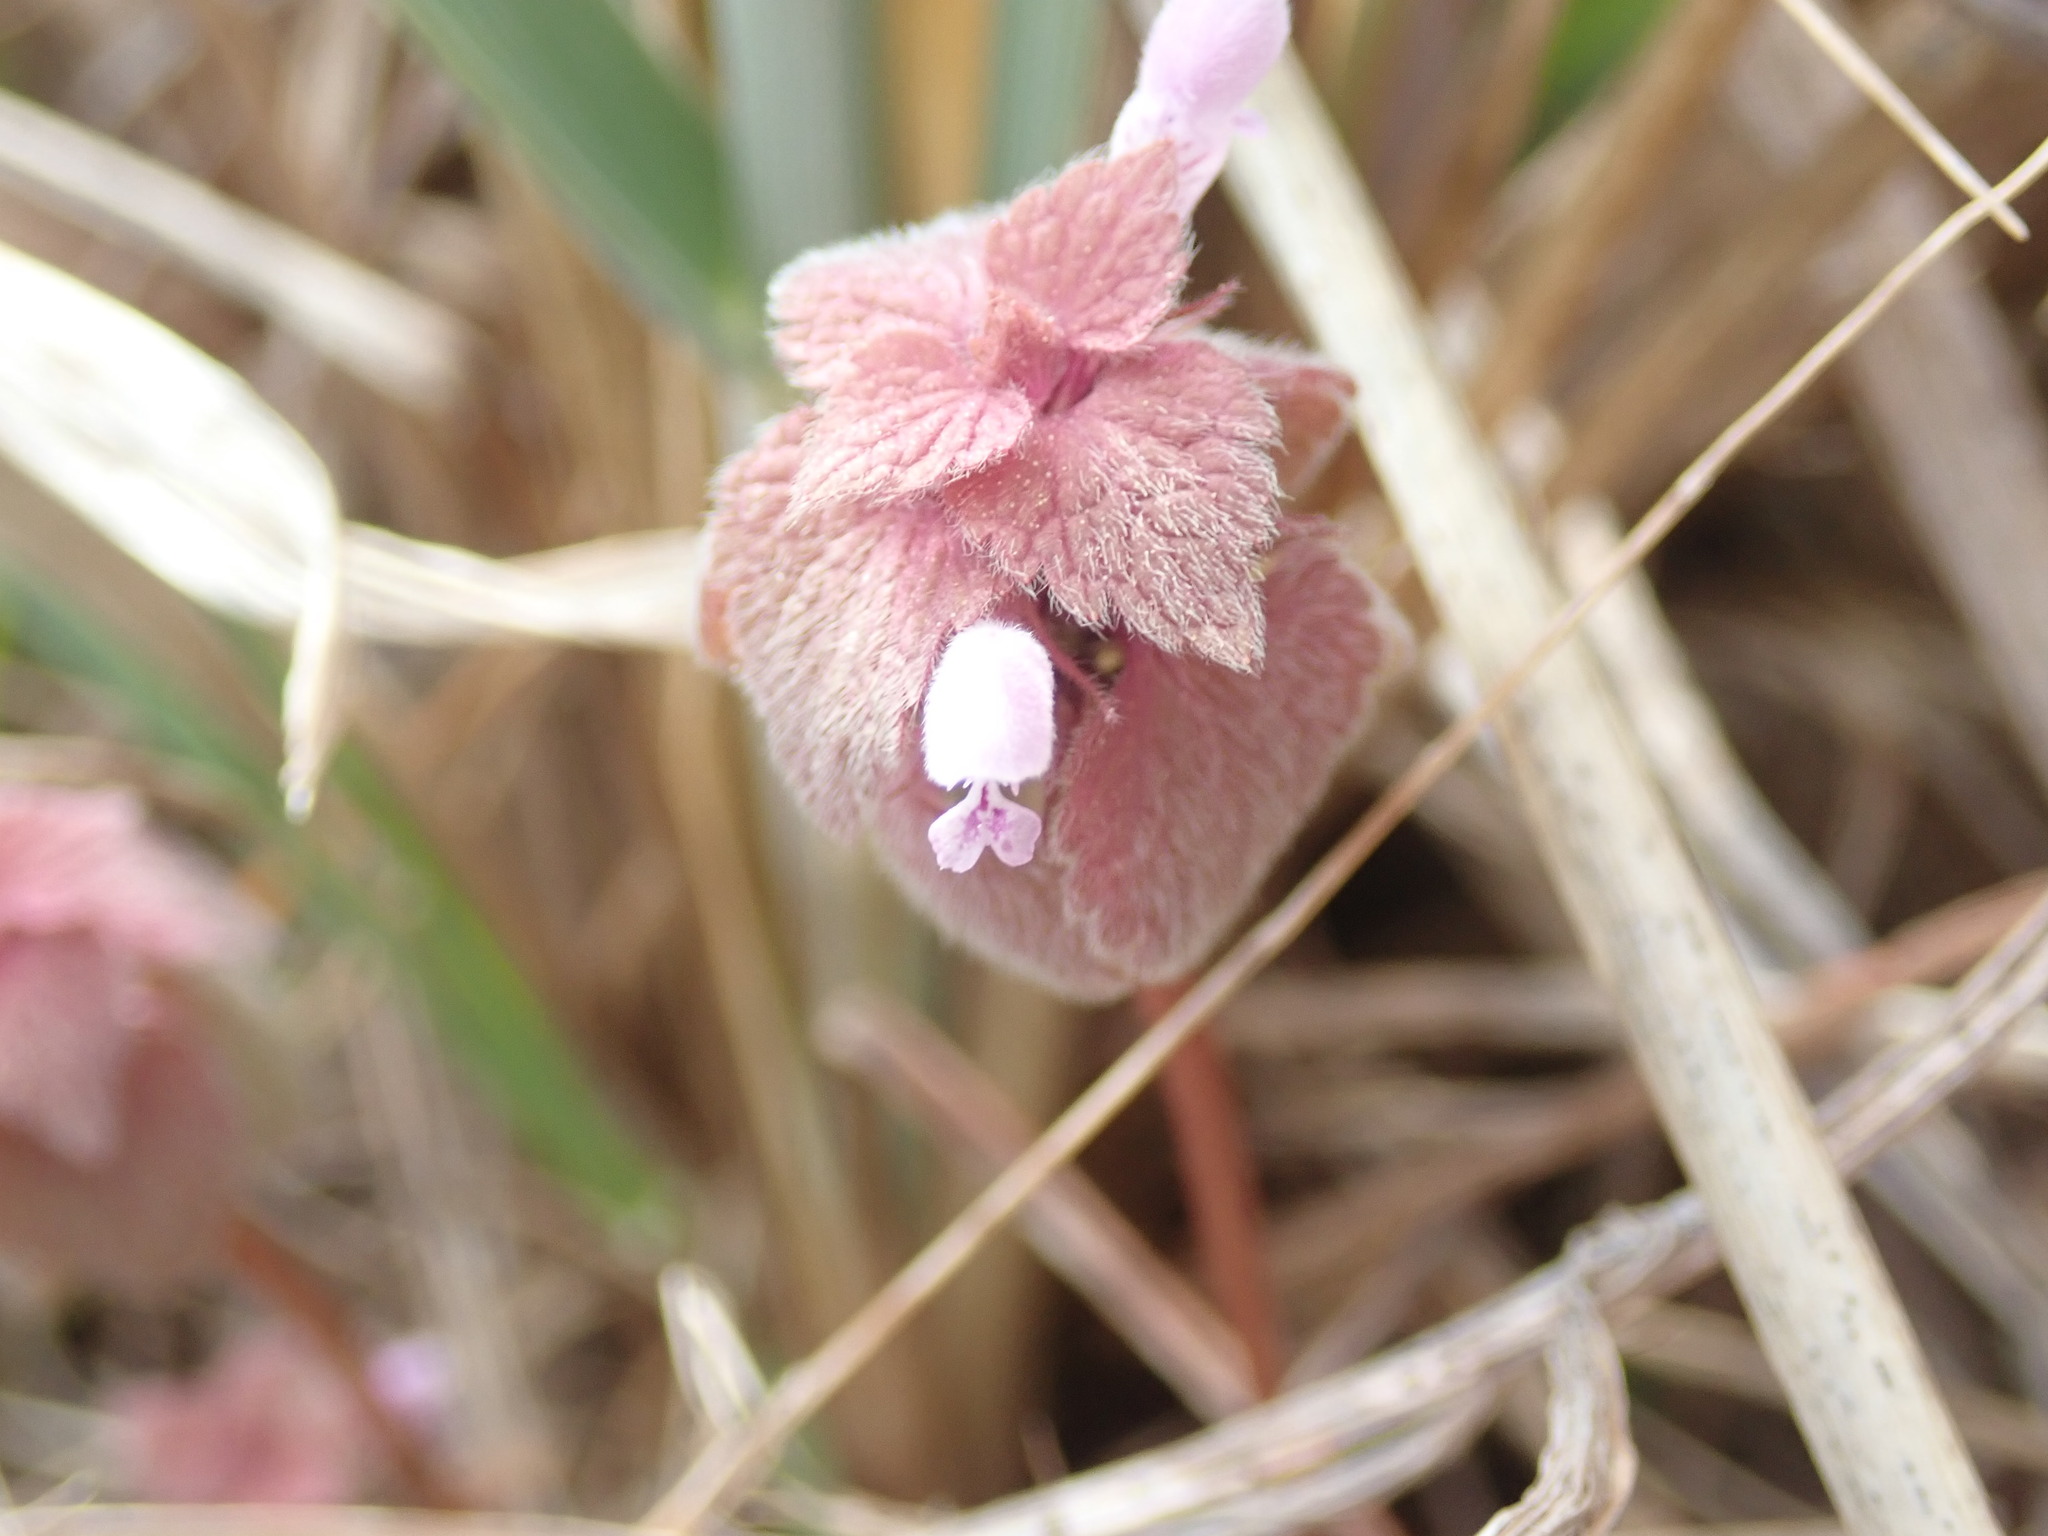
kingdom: Plantae
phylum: Tracheophyta
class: Magnoliopsida
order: Lamiales
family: Lamiaceae
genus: Lamium
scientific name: Lamium purpureum
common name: Red dead-nettle
